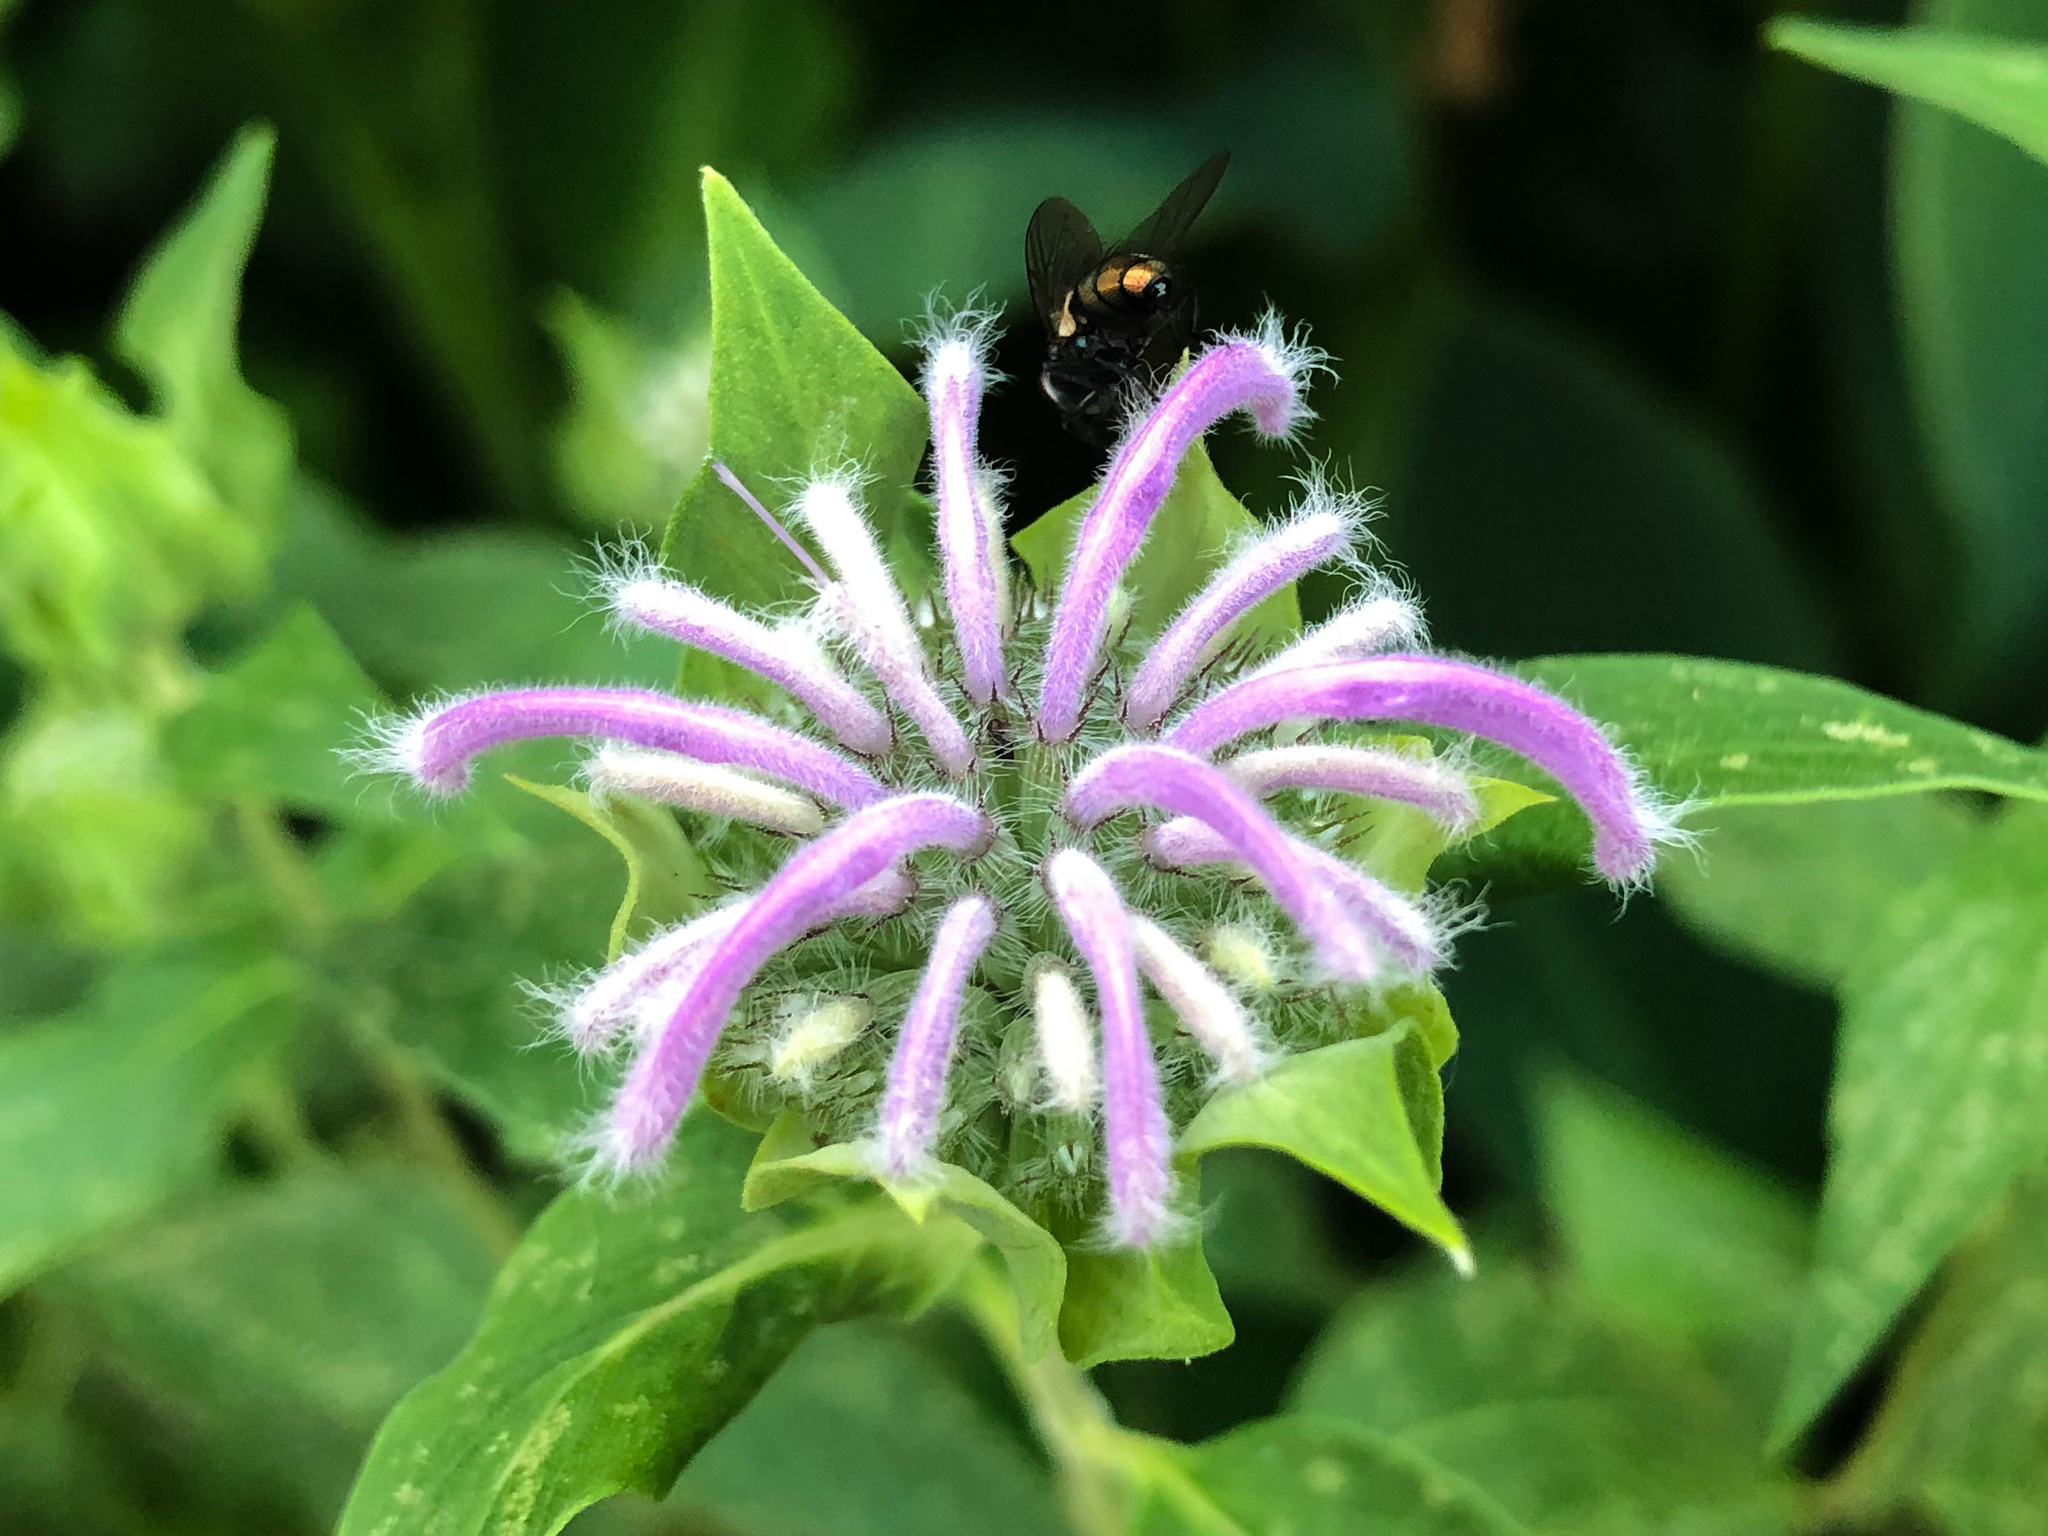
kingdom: Plantae
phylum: Tracheophyta
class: Magnoliopsida
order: Lamiales
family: Lamiaceae
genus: Monarda
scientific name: Monarda fistulosa
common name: Purple beebalm
